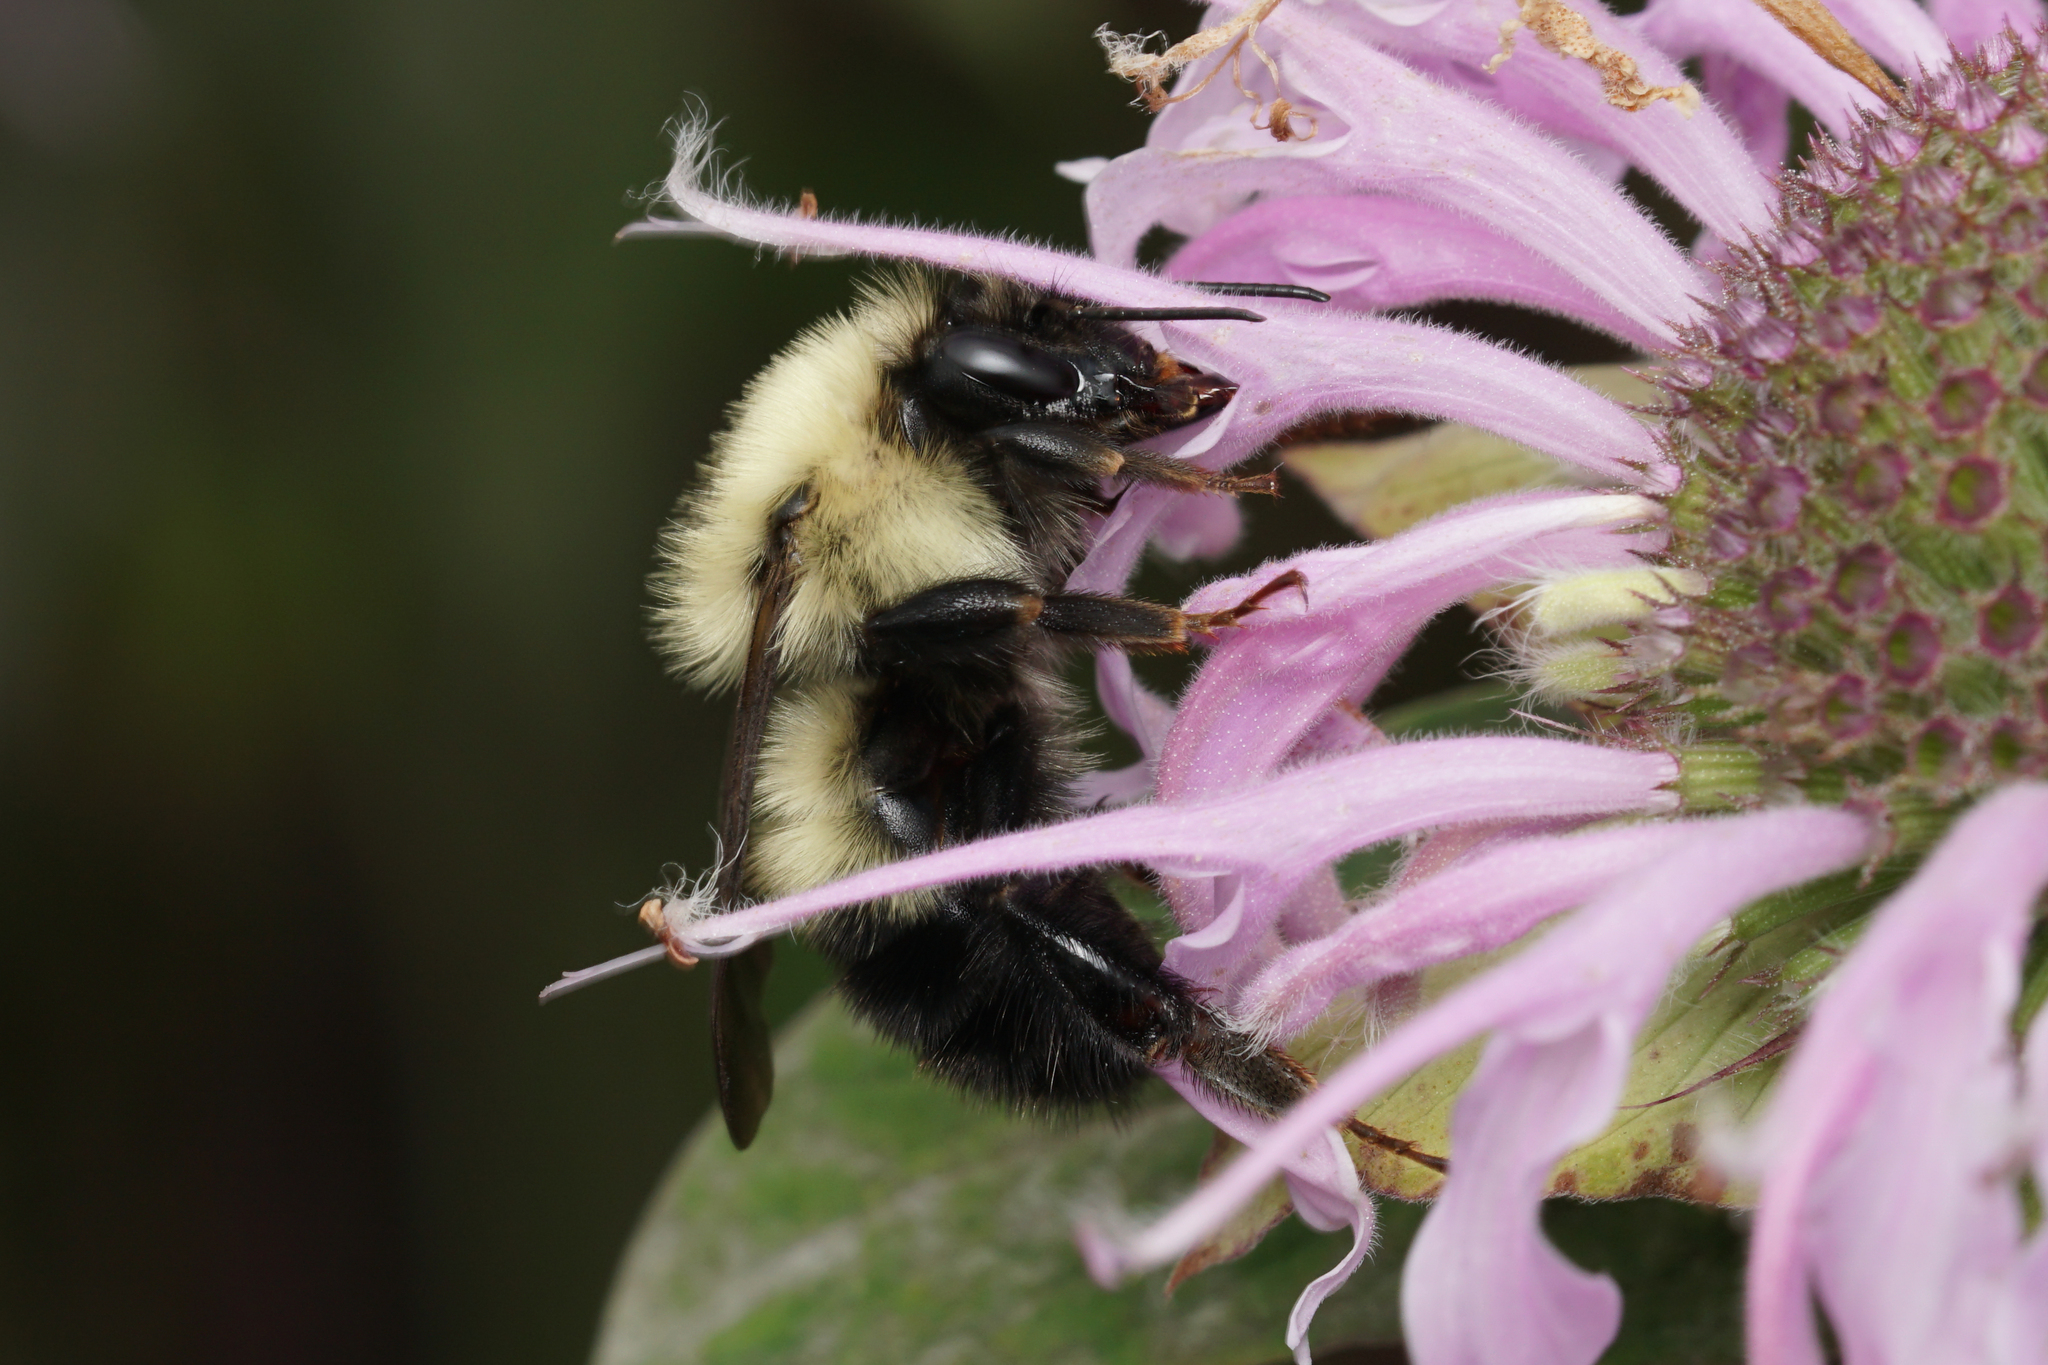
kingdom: Animalia
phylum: Arthropoda
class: Insecta
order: Hymenoptera
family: Apidae
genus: Bombus
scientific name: Bombus vagans
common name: Half-black bumble bee
